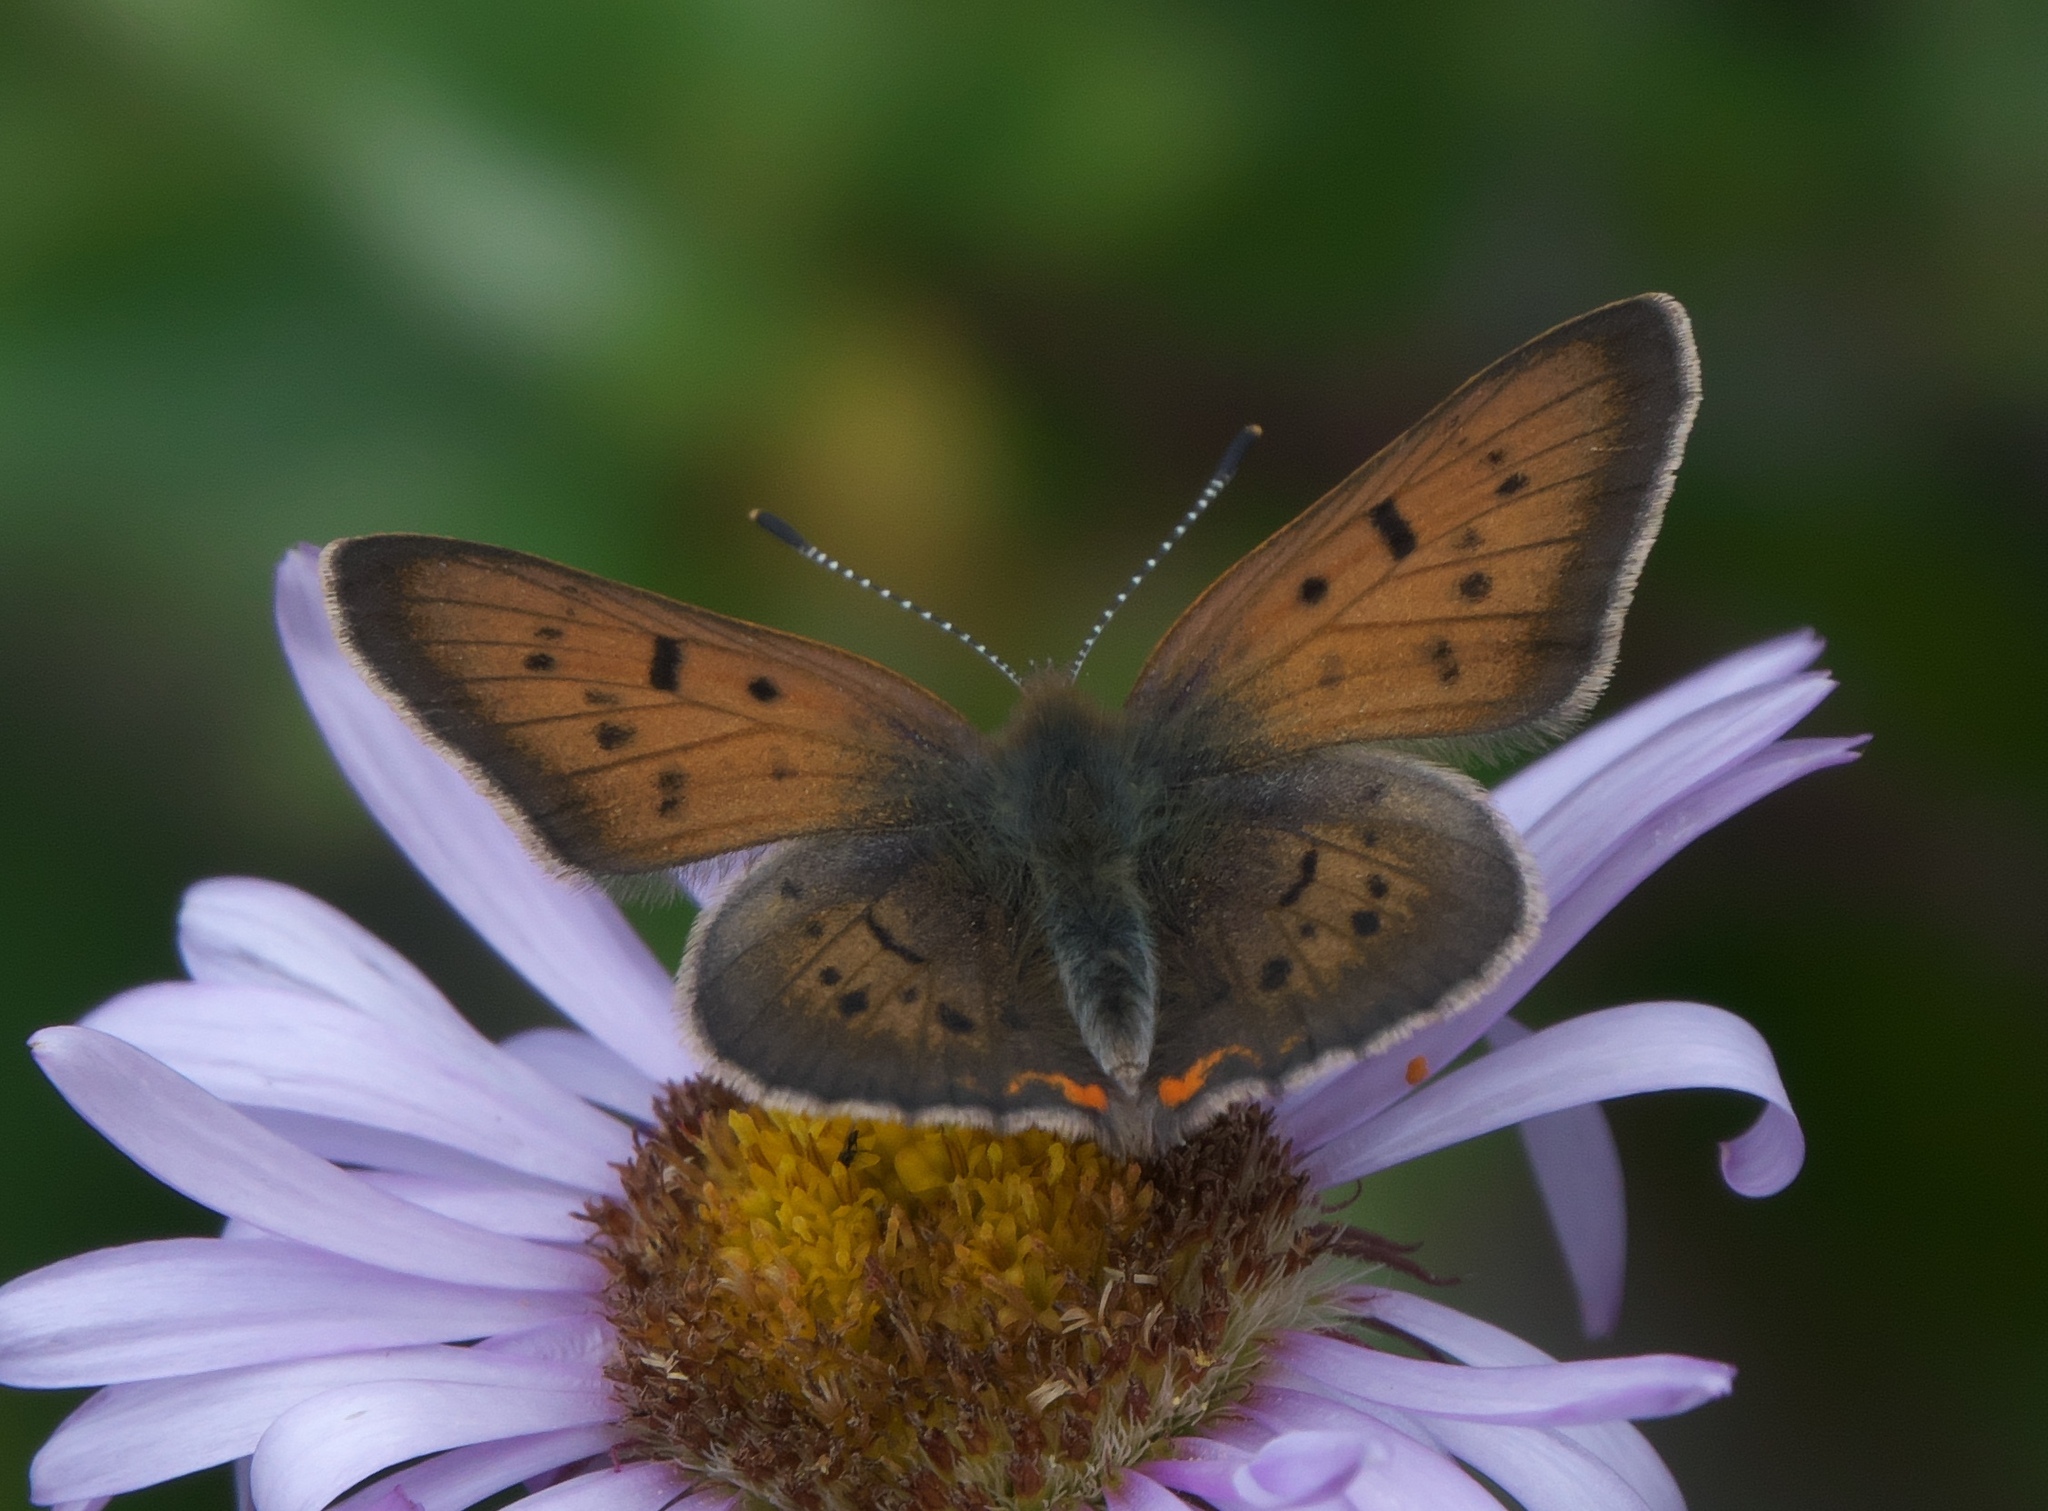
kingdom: Animalia
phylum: Arthropoda
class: Insecta
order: Lepidoptera
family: Lycaenidae
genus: Tharsalea
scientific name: Tharsalea dorcas
